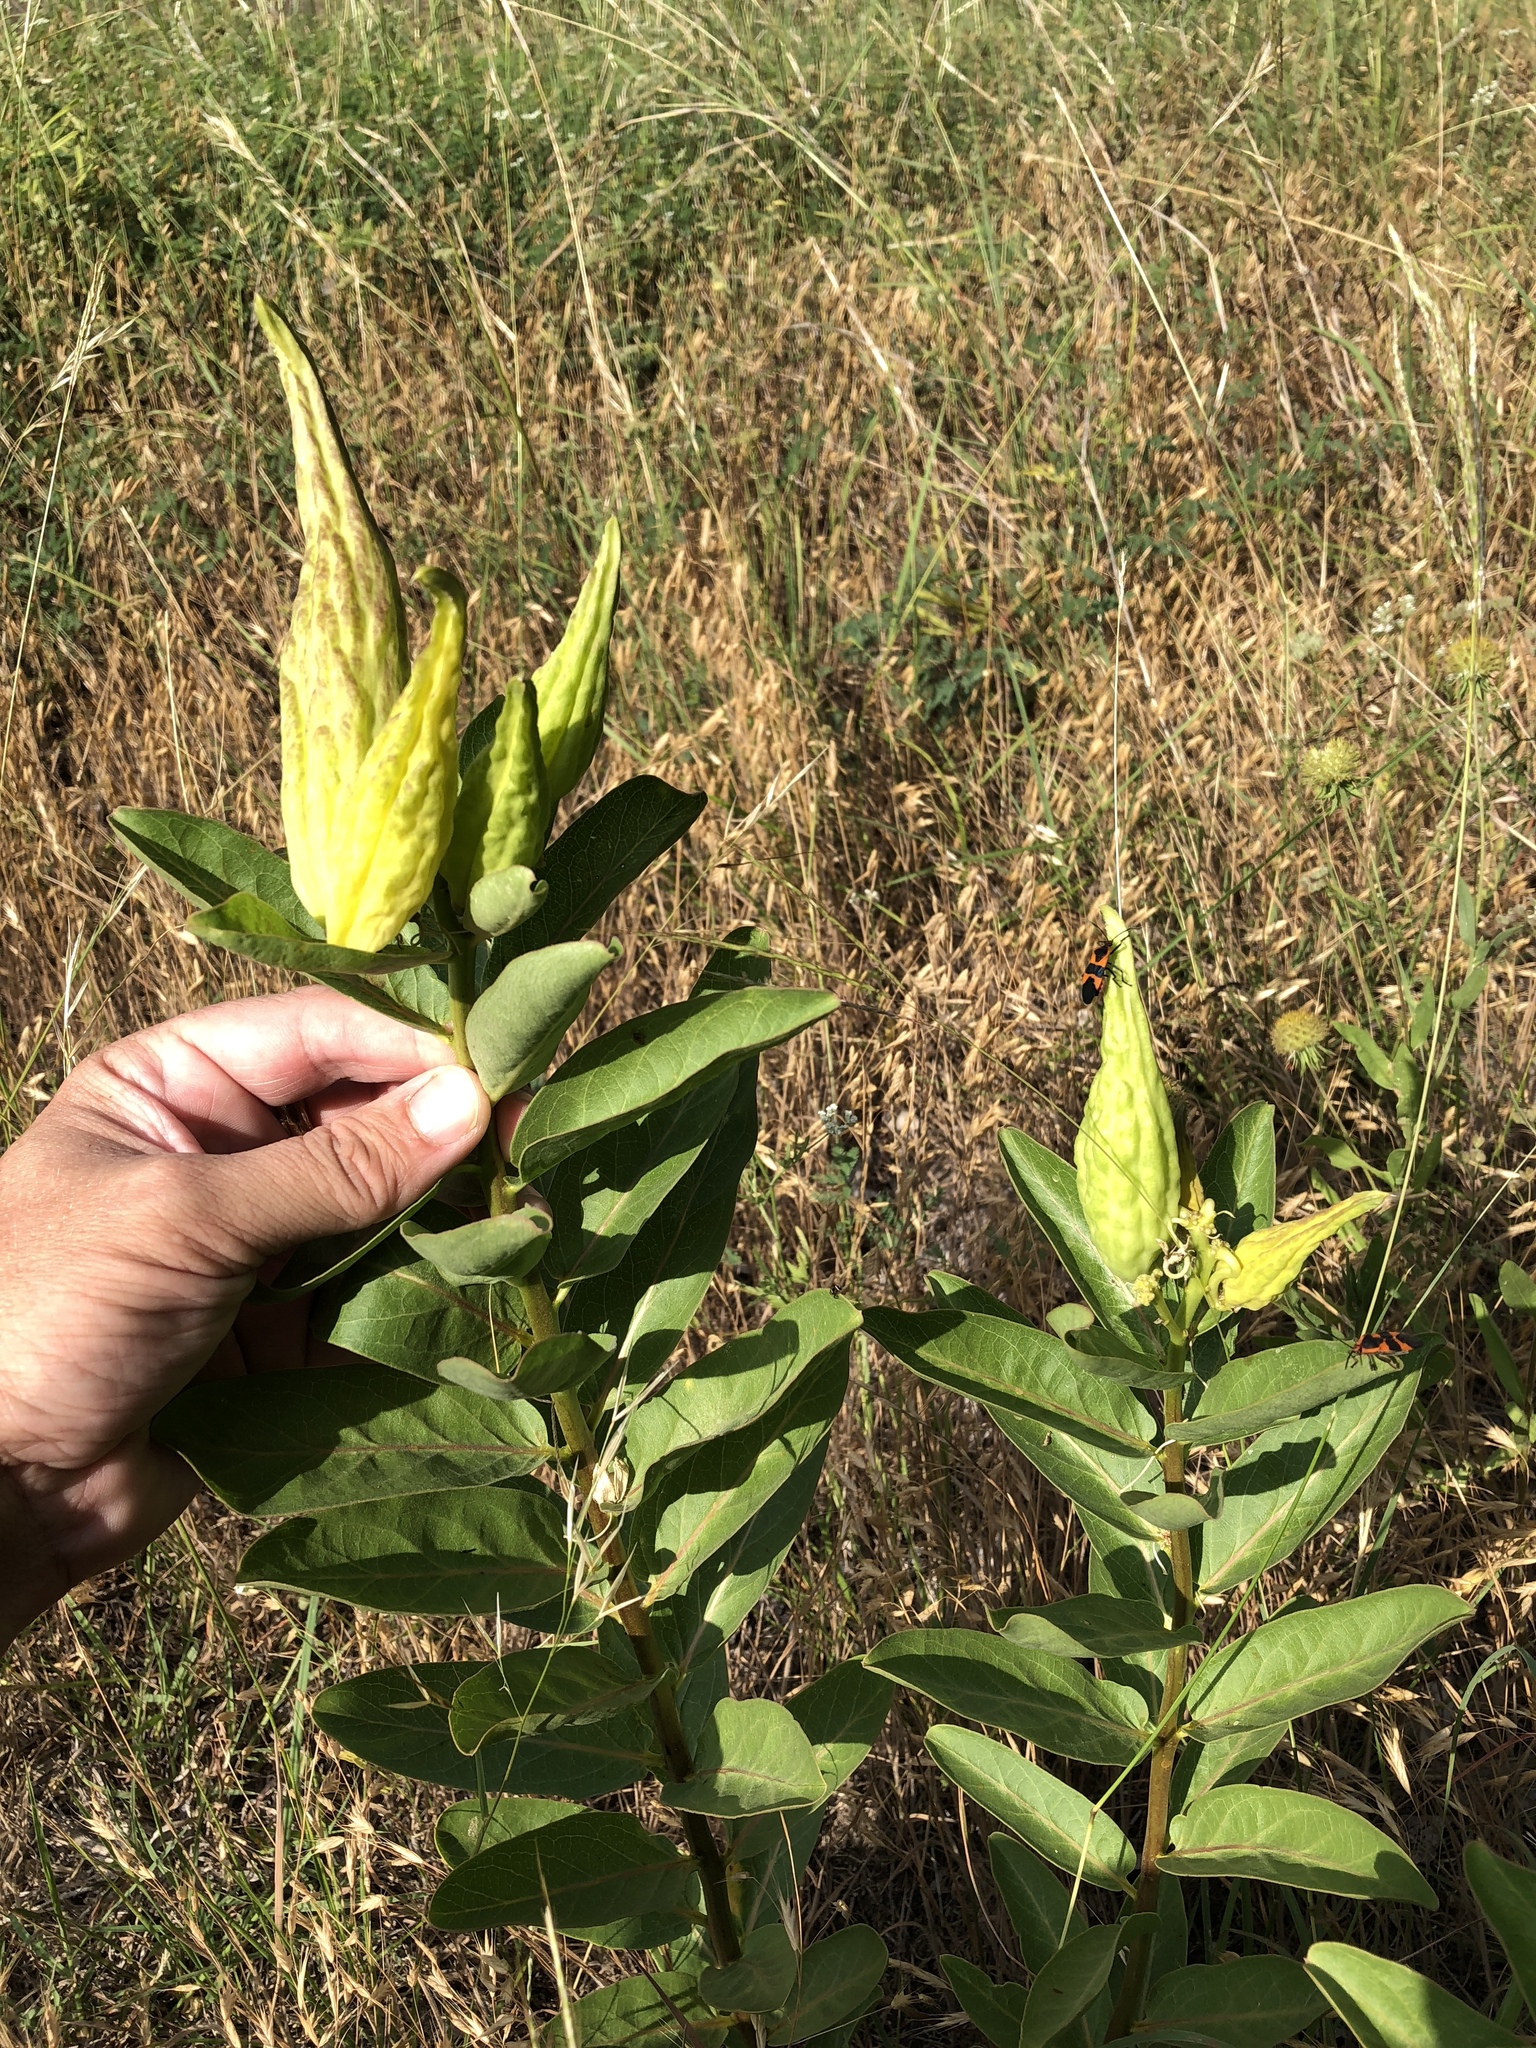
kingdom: Plantae
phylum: Tracheophyta
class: Magnoliopsida
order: Gentianales
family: Apocynaceae
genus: Asclepias
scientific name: Asclepias viridis
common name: Antelope-horns
